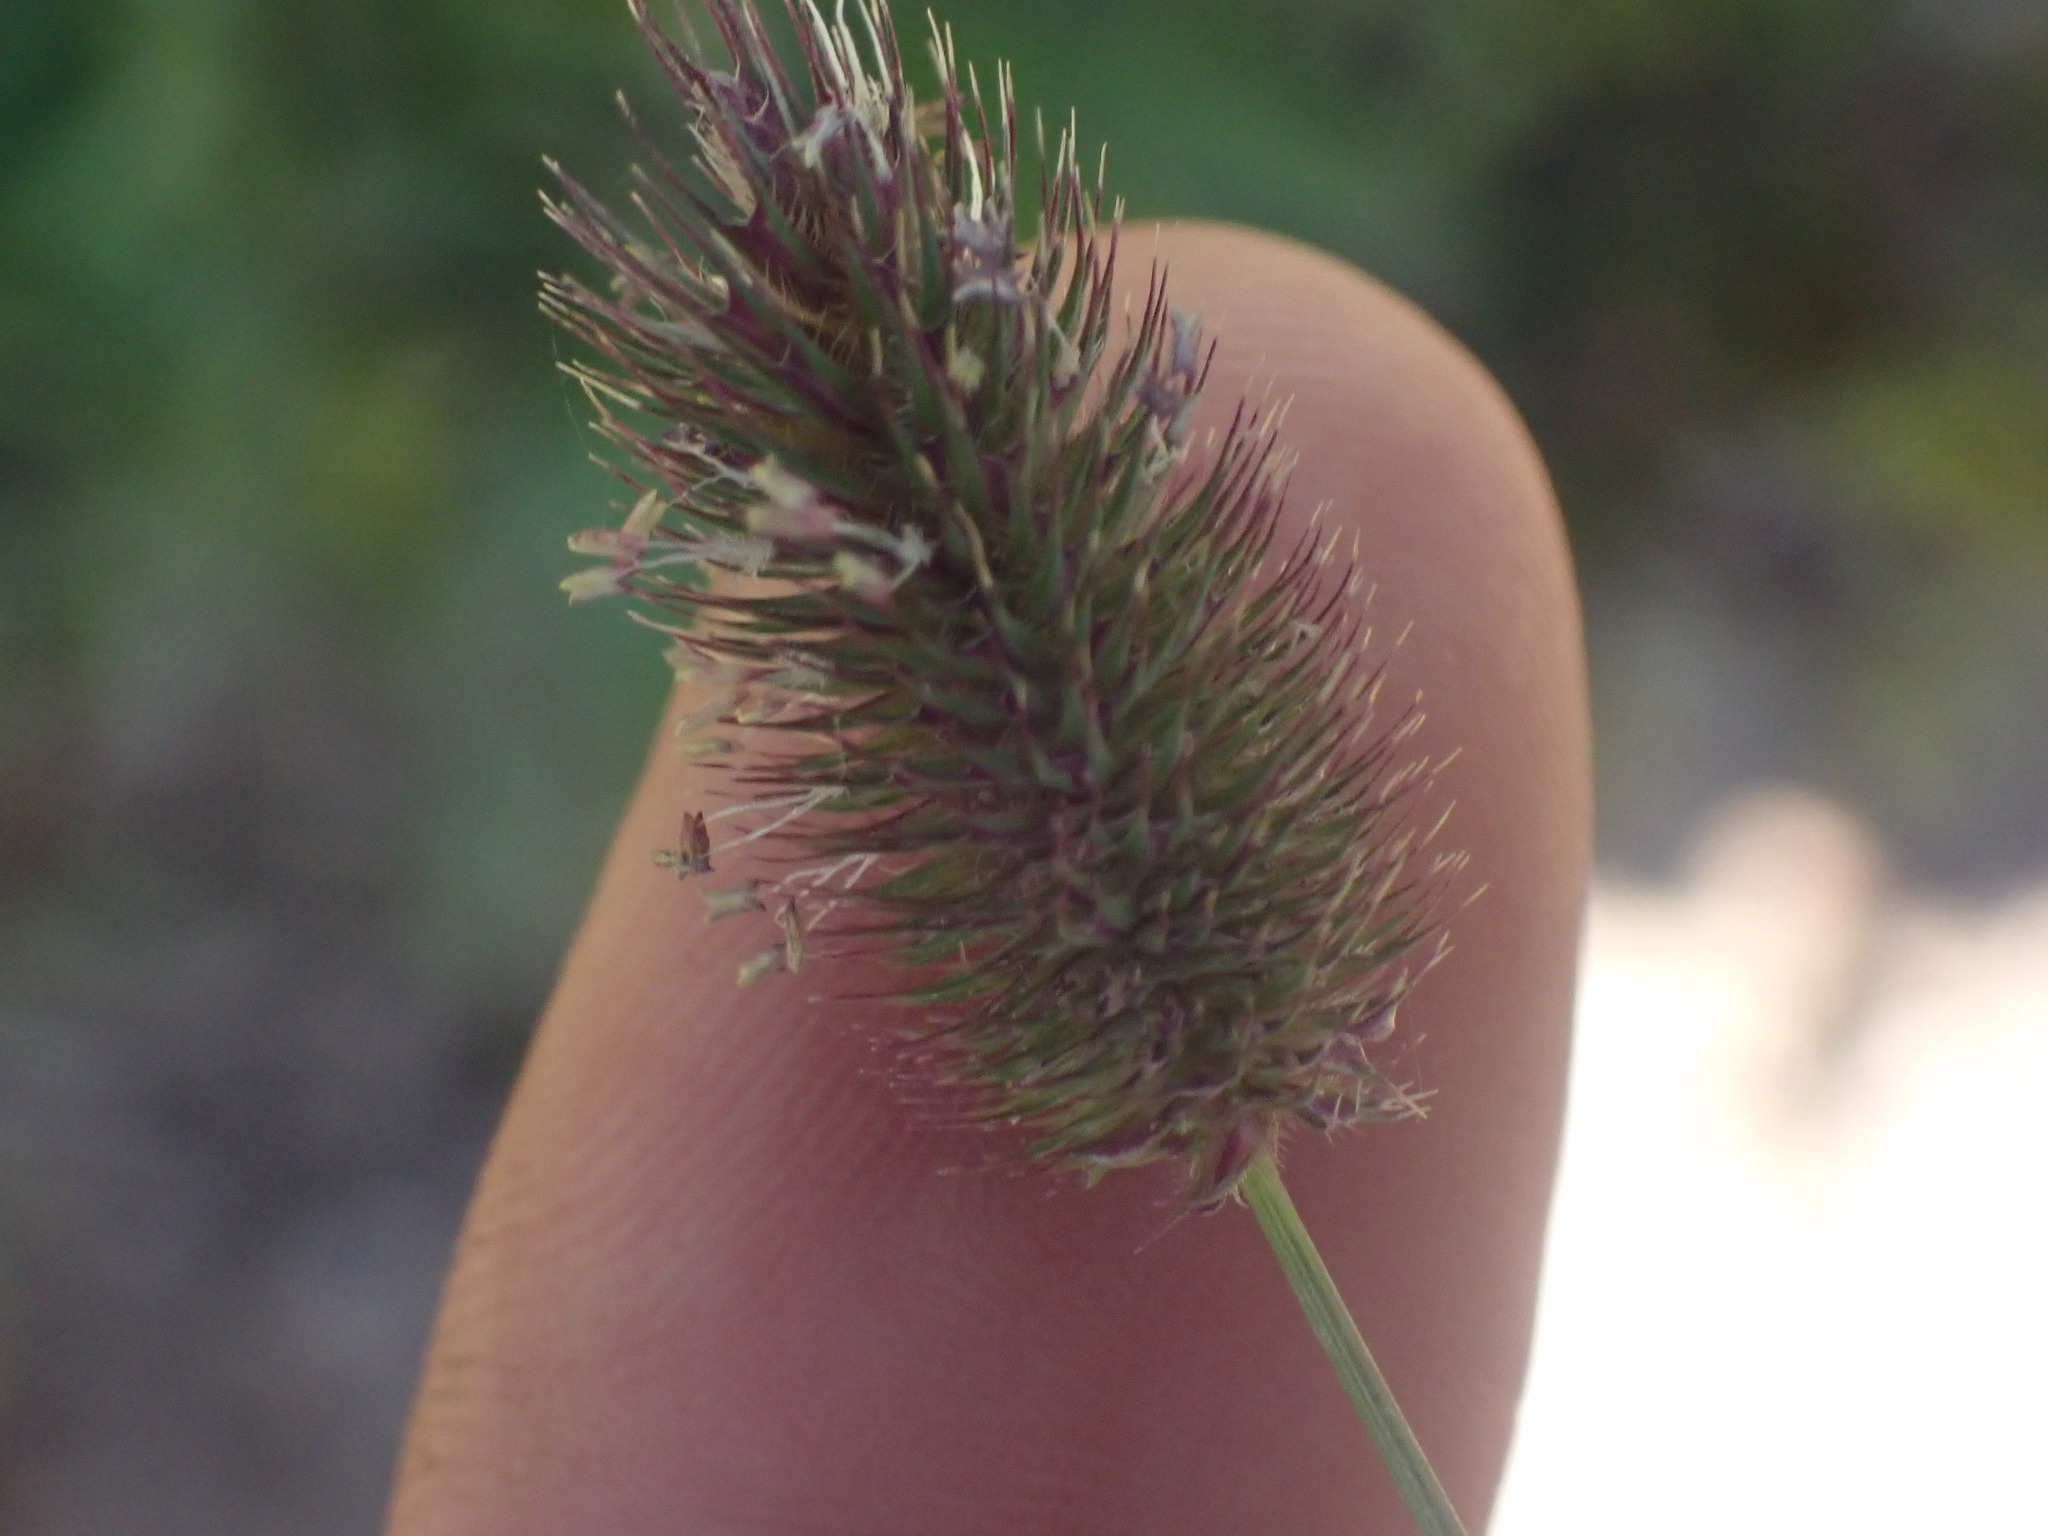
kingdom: Plantae
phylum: Tracheophyta
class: Liliopsida
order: Poales
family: Poaceae
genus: Phleum
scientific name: Phleum alpinum
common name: Alpine cat's-tail
